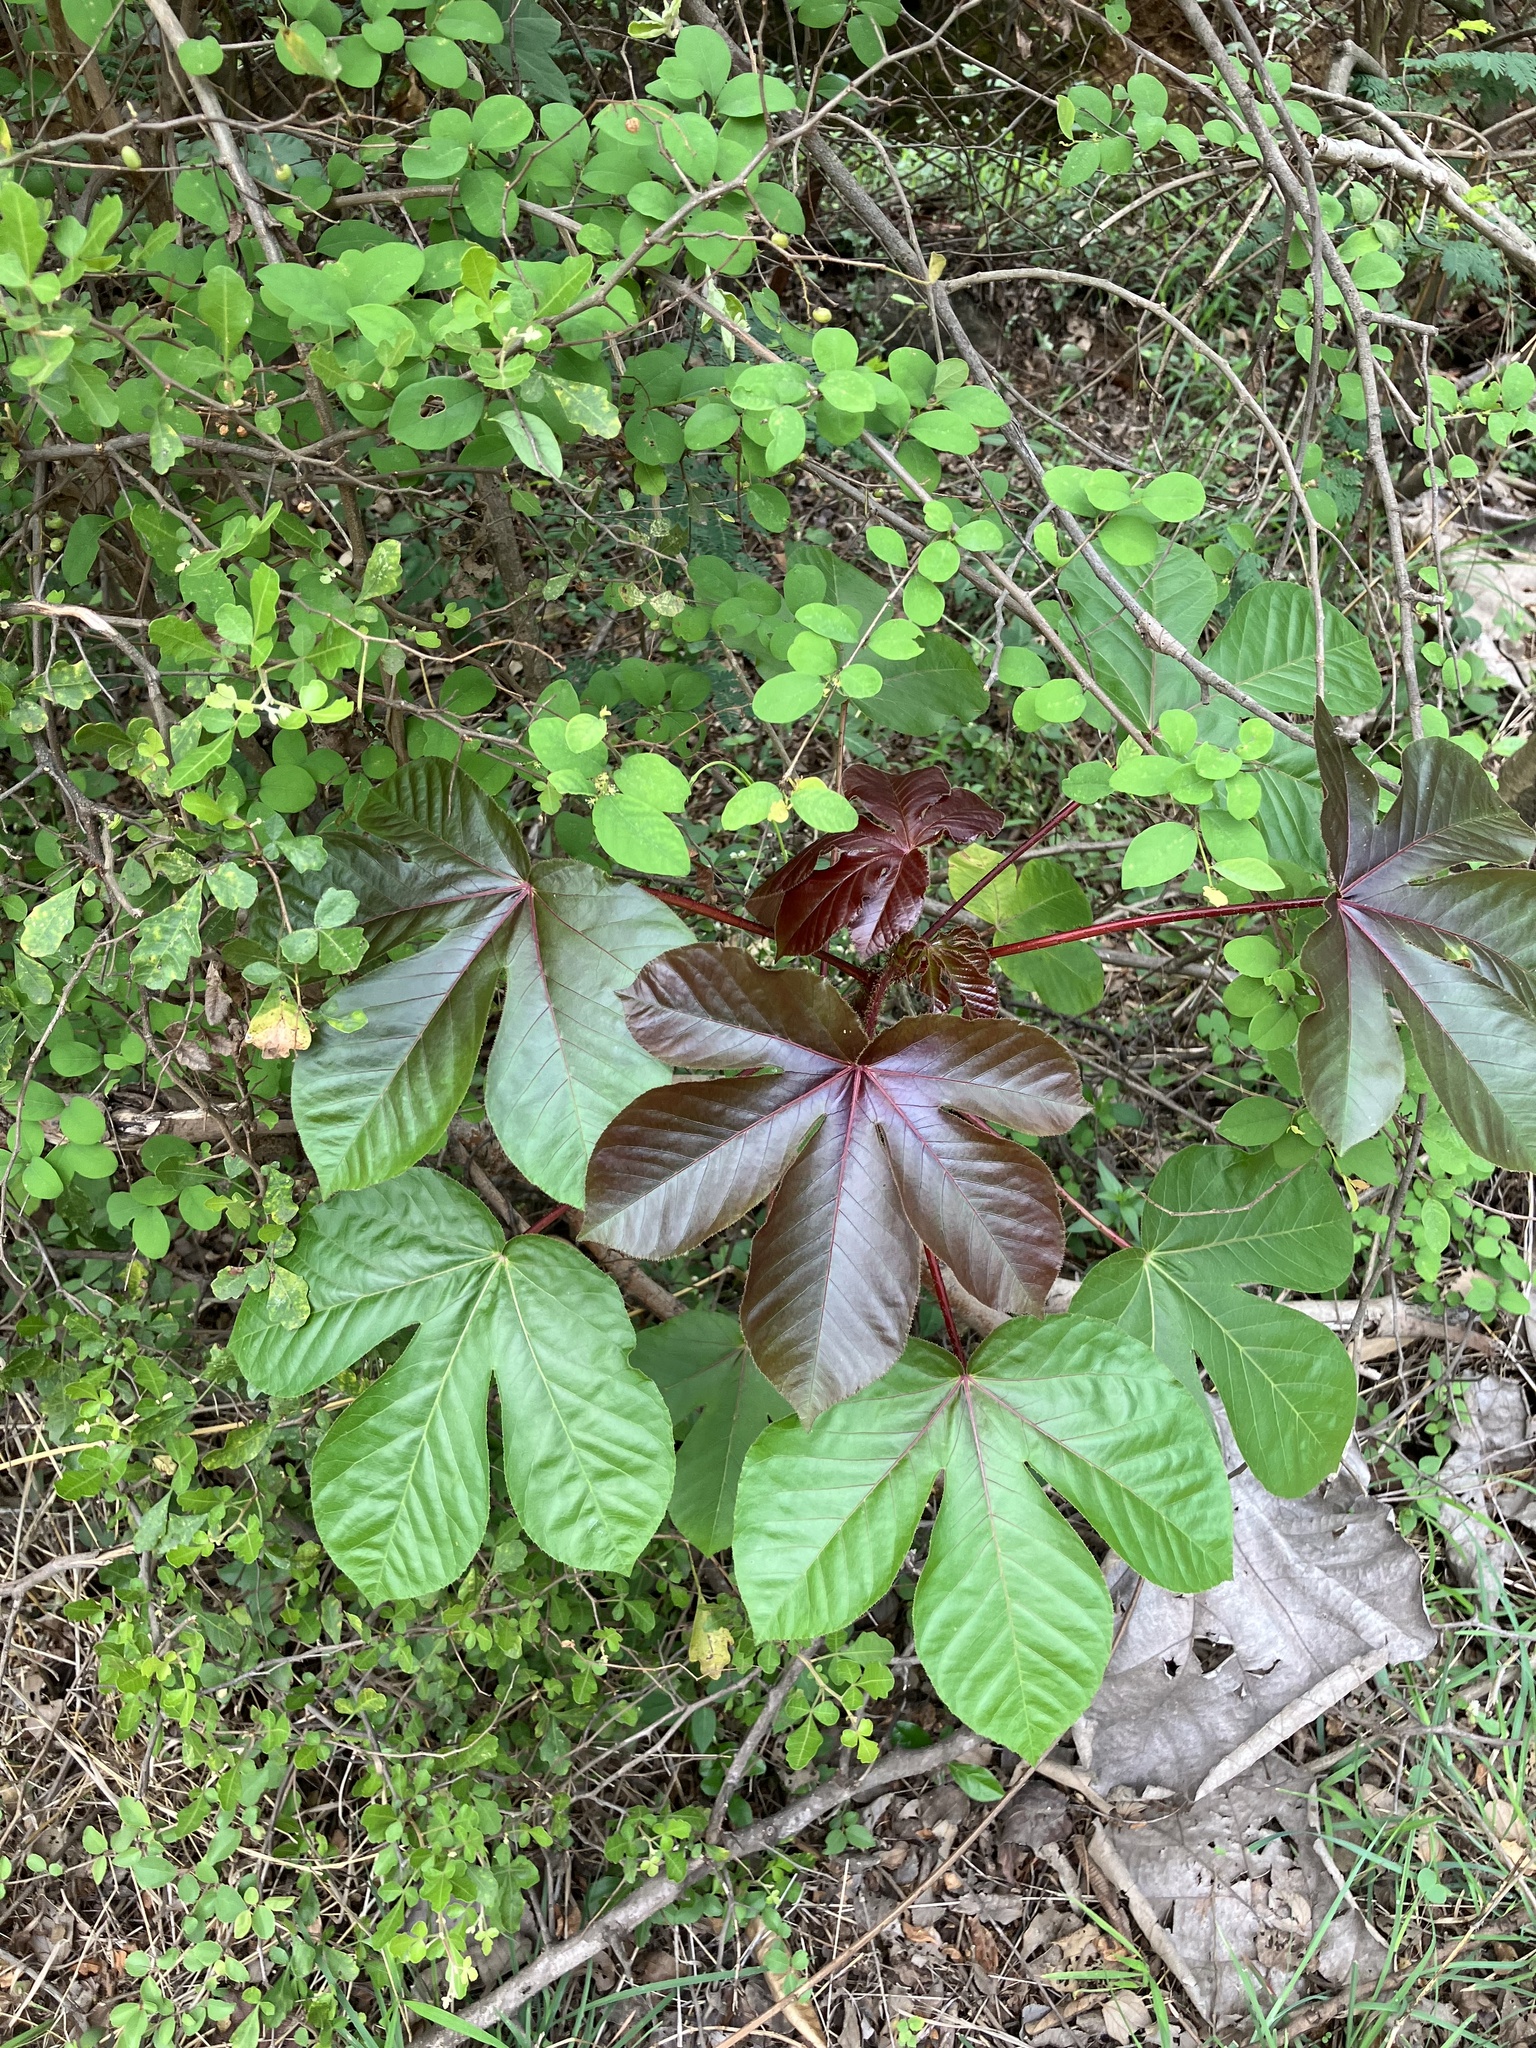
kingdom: Plantae
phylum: Tracheophyta
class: Magnoliopsida
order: Malpighiales
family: Euphorbiaceae
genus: Jatropha
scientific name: Jatropha gossypiifolia
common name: Bellyache bush
